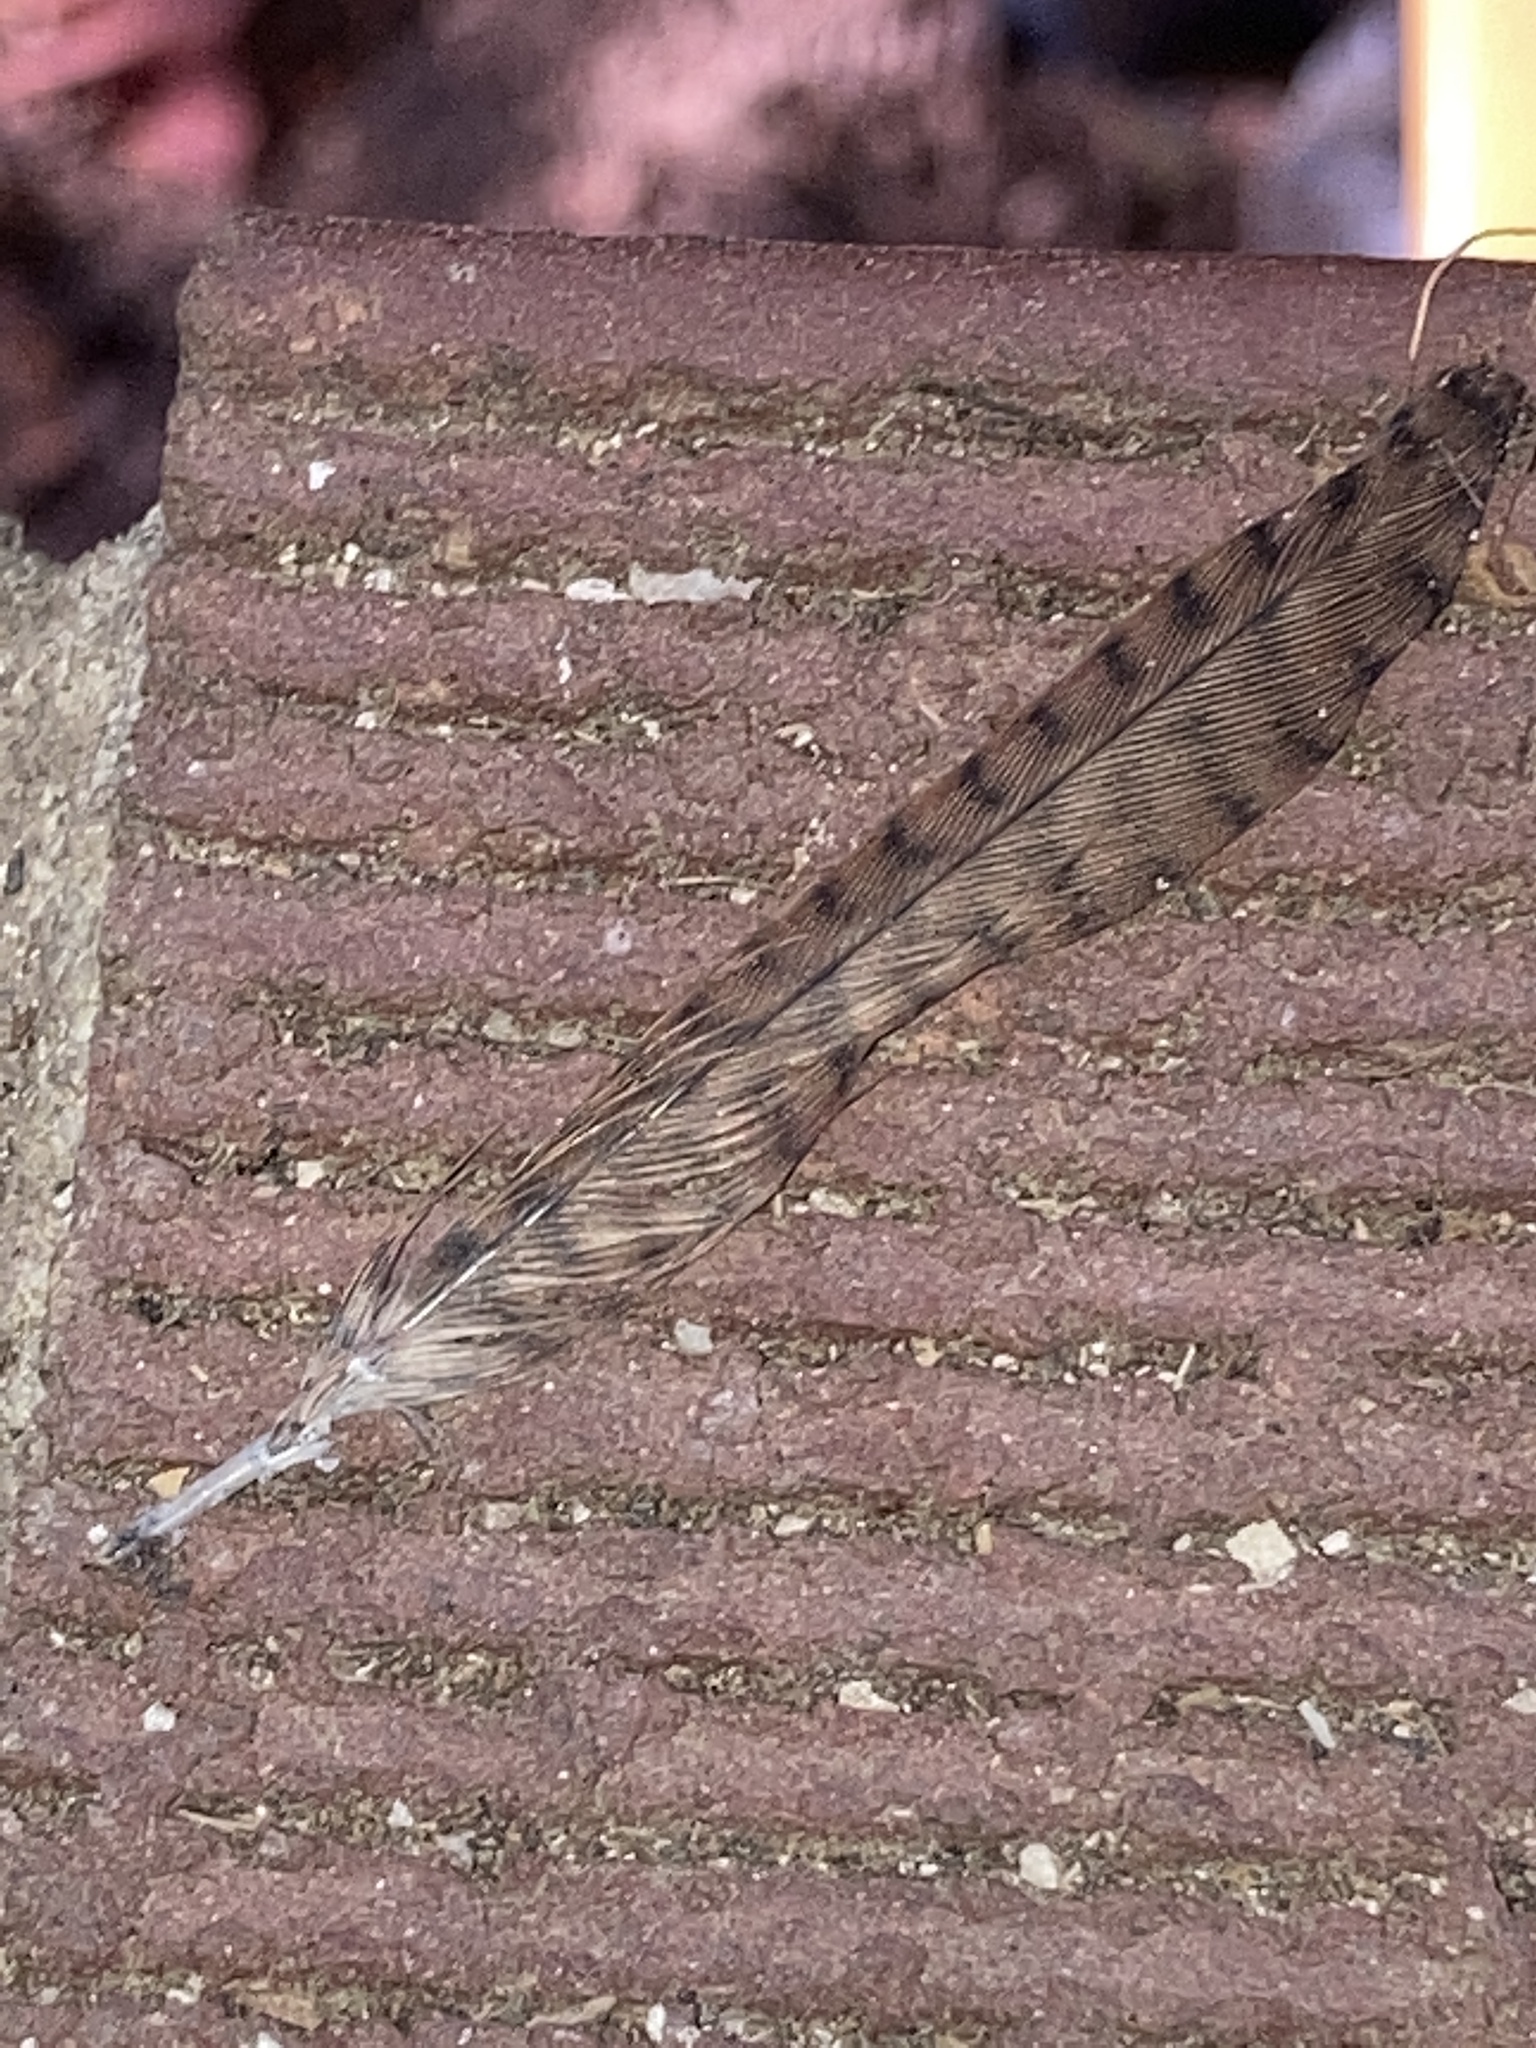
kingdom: Animalia
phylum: Chordata
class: Aves
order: Passeriformes
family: Troglodytidae
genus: Thryothorus
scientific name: Thryothorus ludovicianus
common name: Carolina wren
